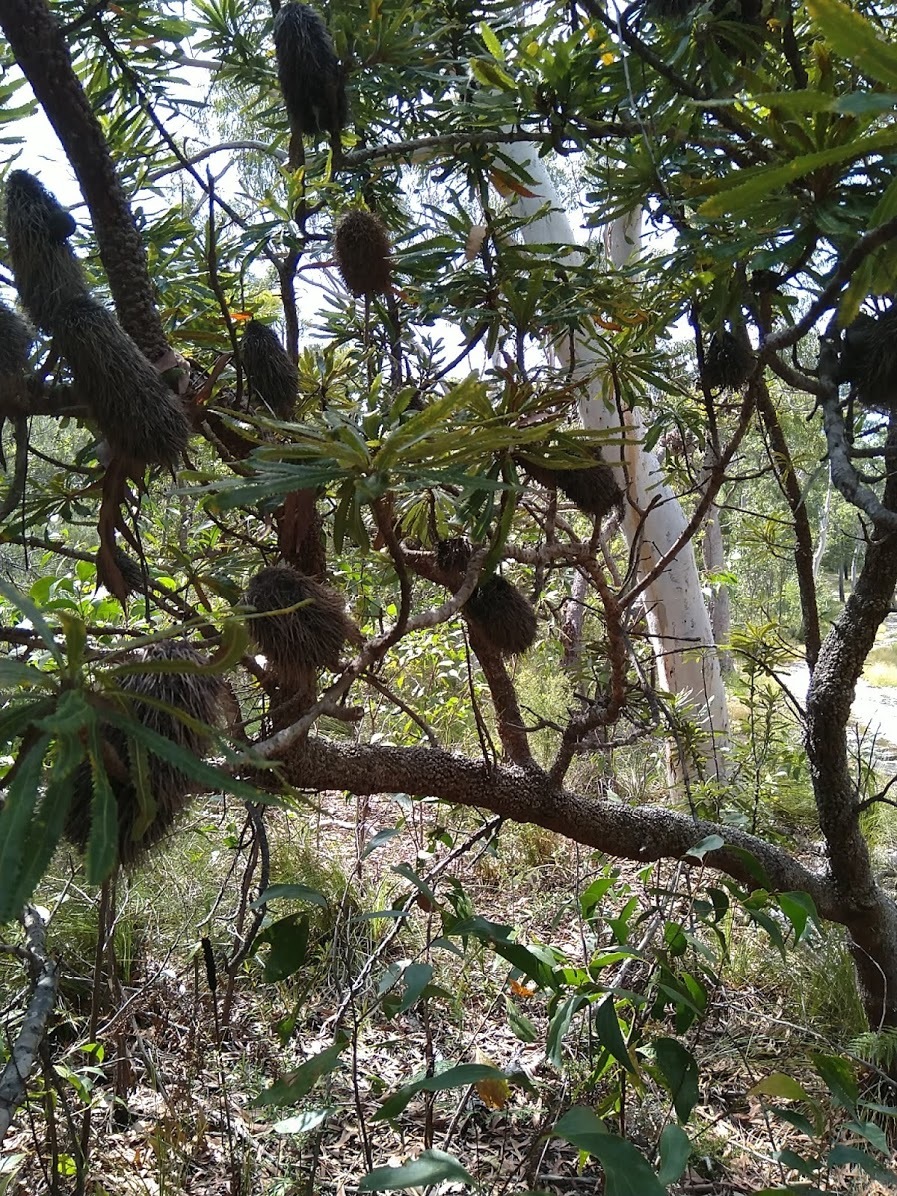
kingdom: Plantae
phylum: Tracheophyta
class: Magnoliopsida
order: Proteales
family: Proteaceae
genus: Banksia
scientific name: Banksia aemula
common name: Wallum banksia
